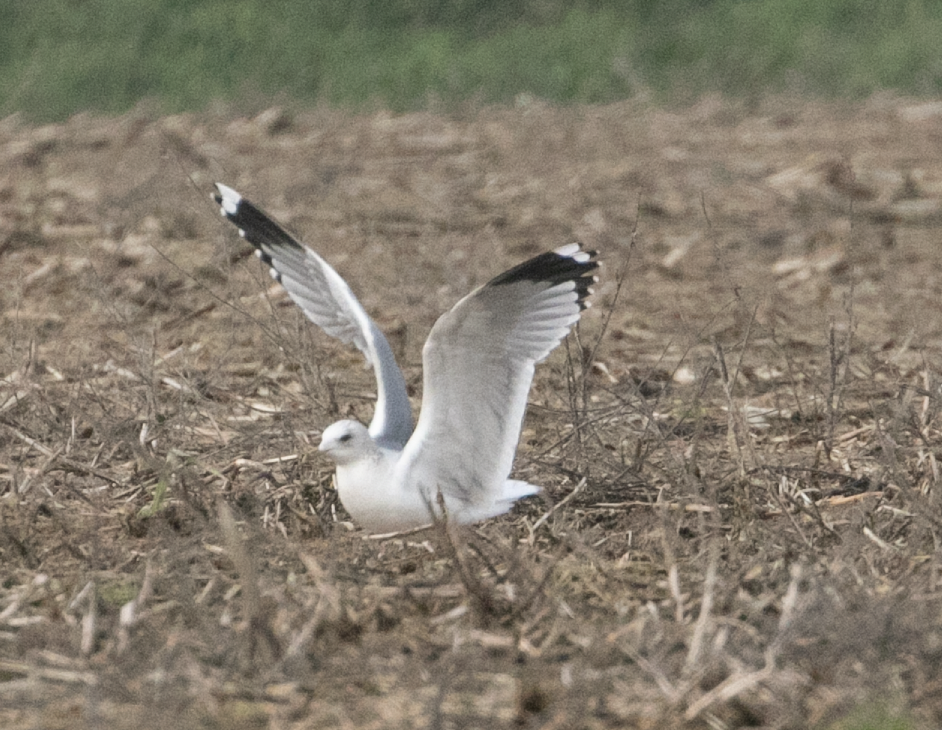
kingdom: Animalia
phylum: Chordata
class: Aves
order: Charadriiformes
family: Laridae
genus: Larus
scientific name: Larus canus
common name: Mew gull
